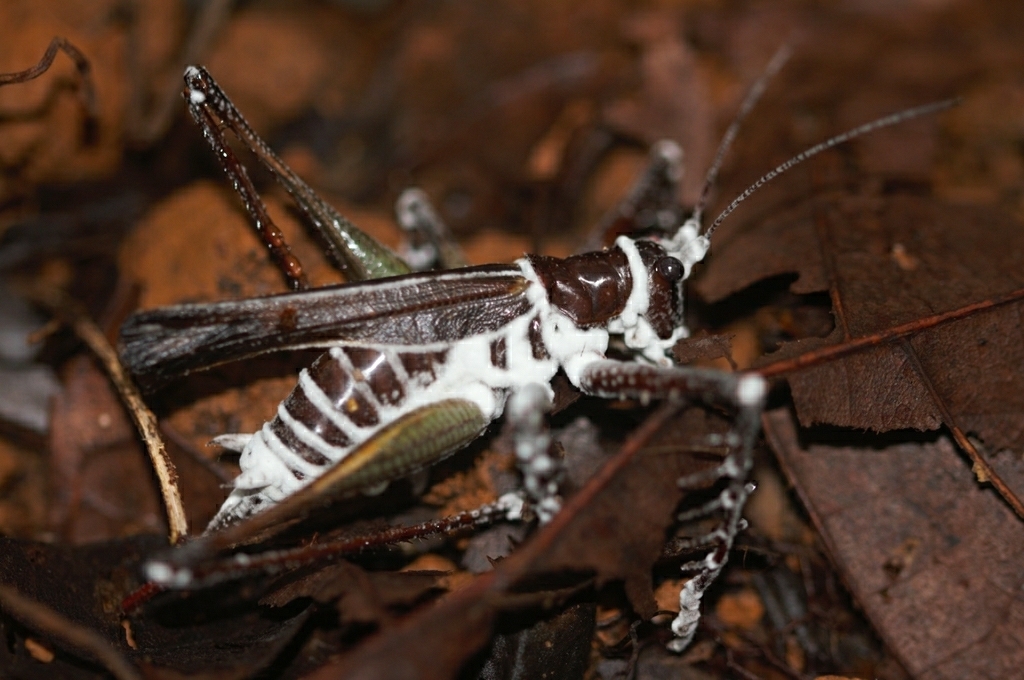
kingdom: Animalia
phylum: Arthropoda
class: Insecta
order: Orthoptera
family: Tettigoniidae
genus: Venatorellus
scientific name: Venatorellus viridipedes
